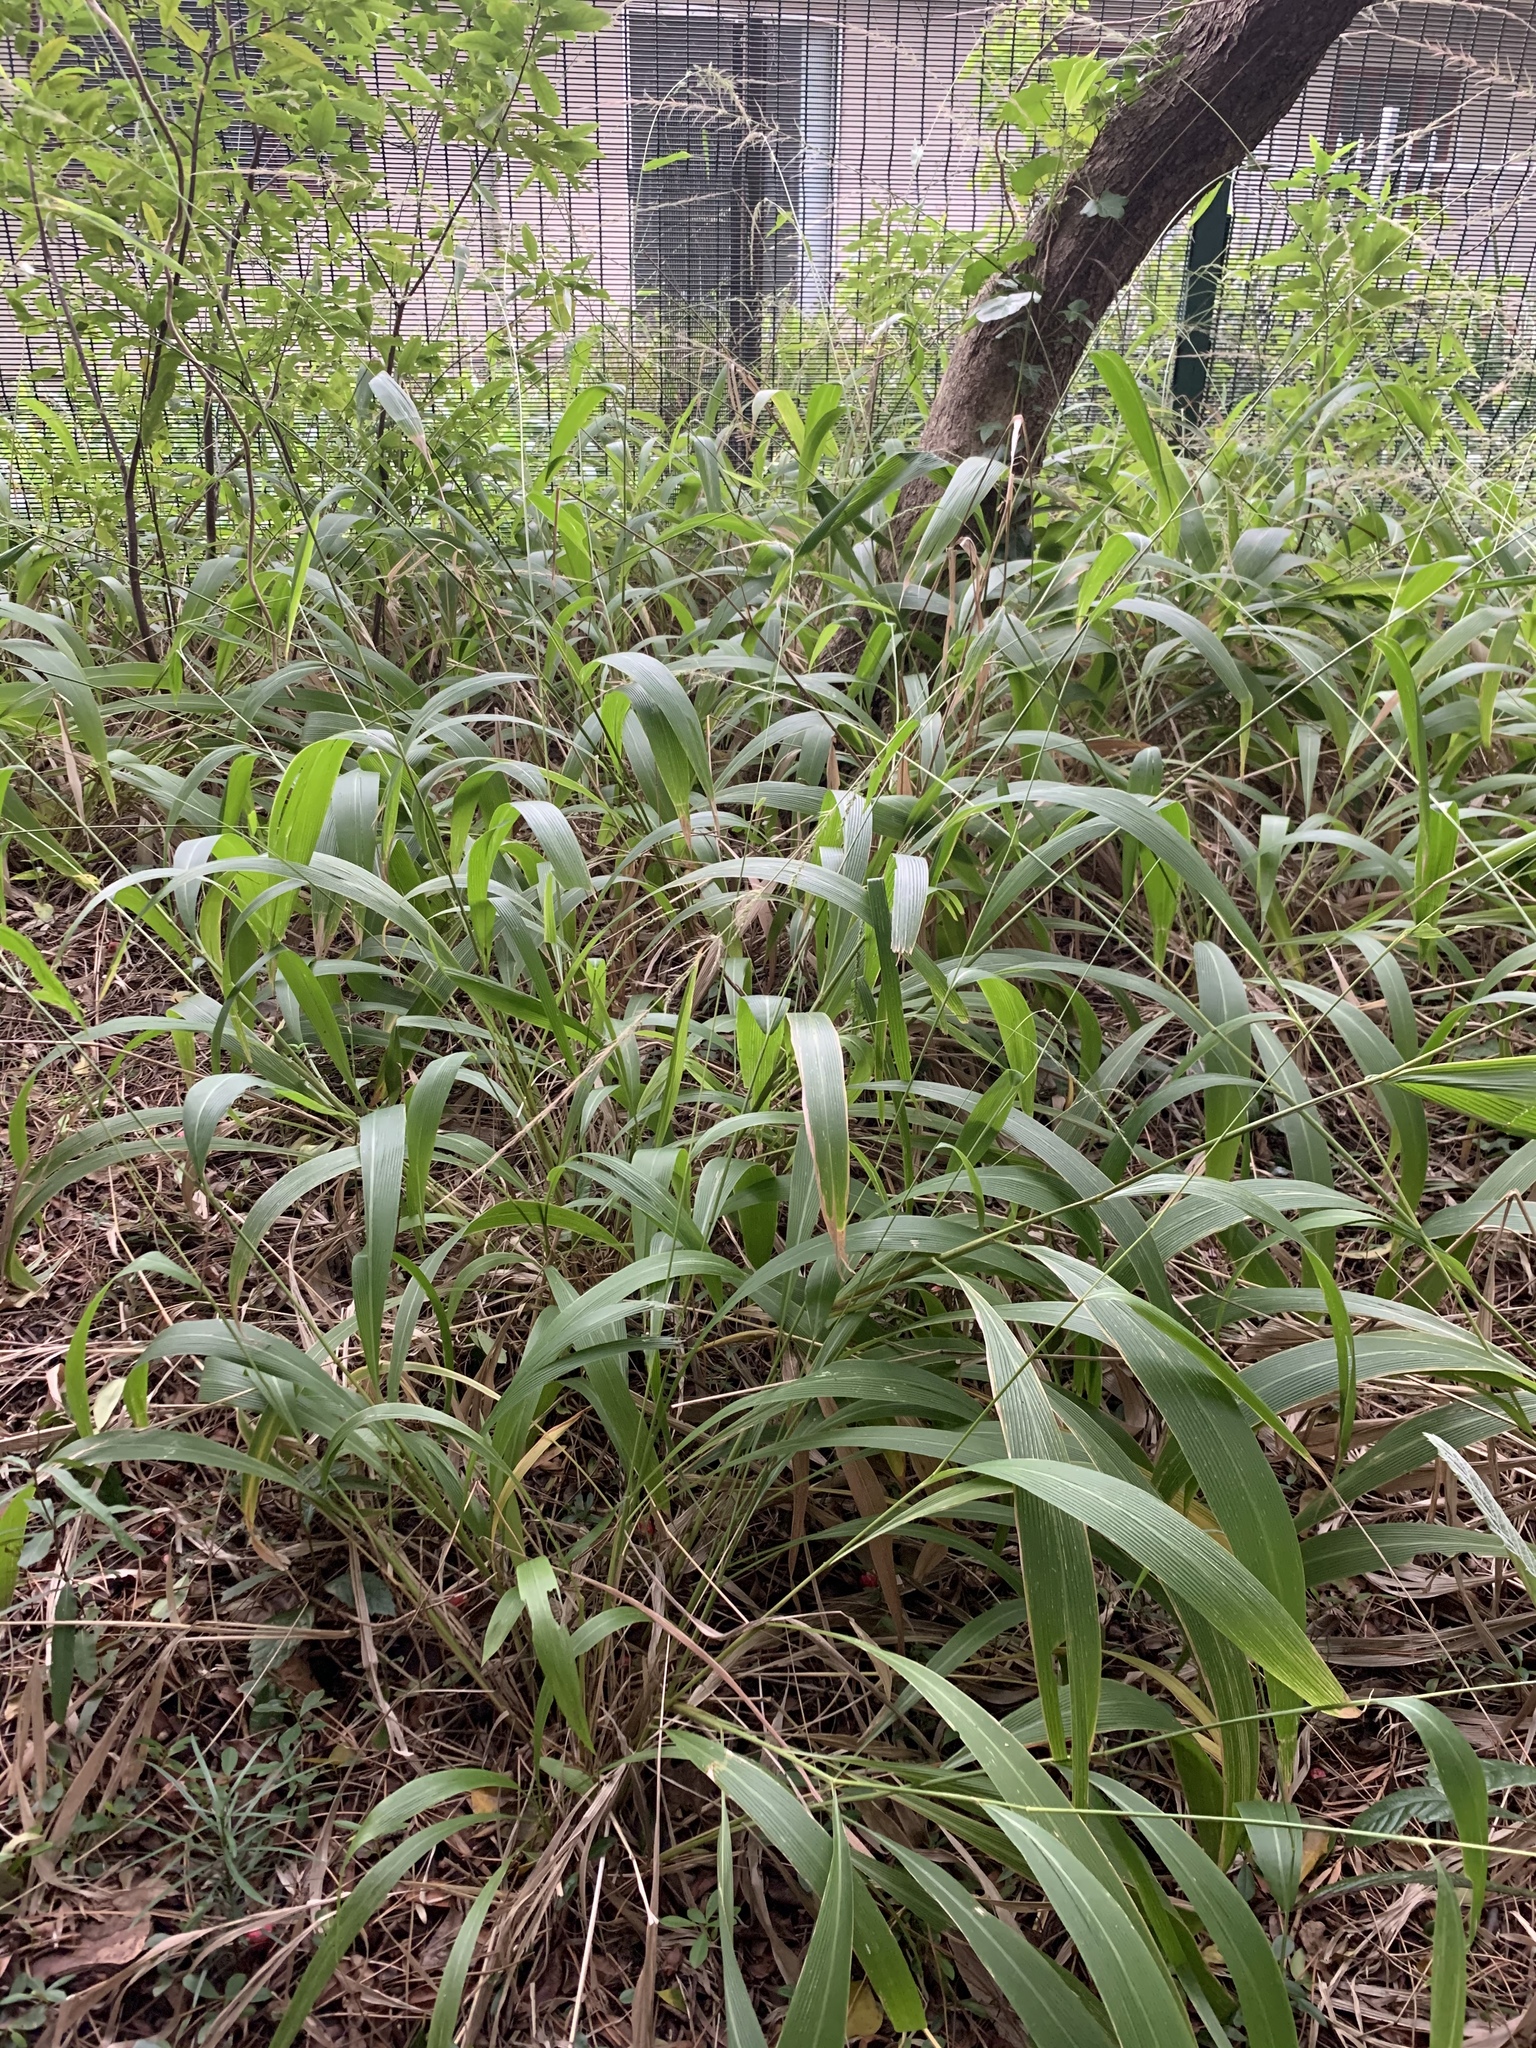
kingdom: Plantae
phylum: Tracheophyta
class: Liliopsida
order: Poales
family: Poaceae
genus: Setaria
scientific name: Setaria megaphylla
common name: Bigleaf bristlegrass
